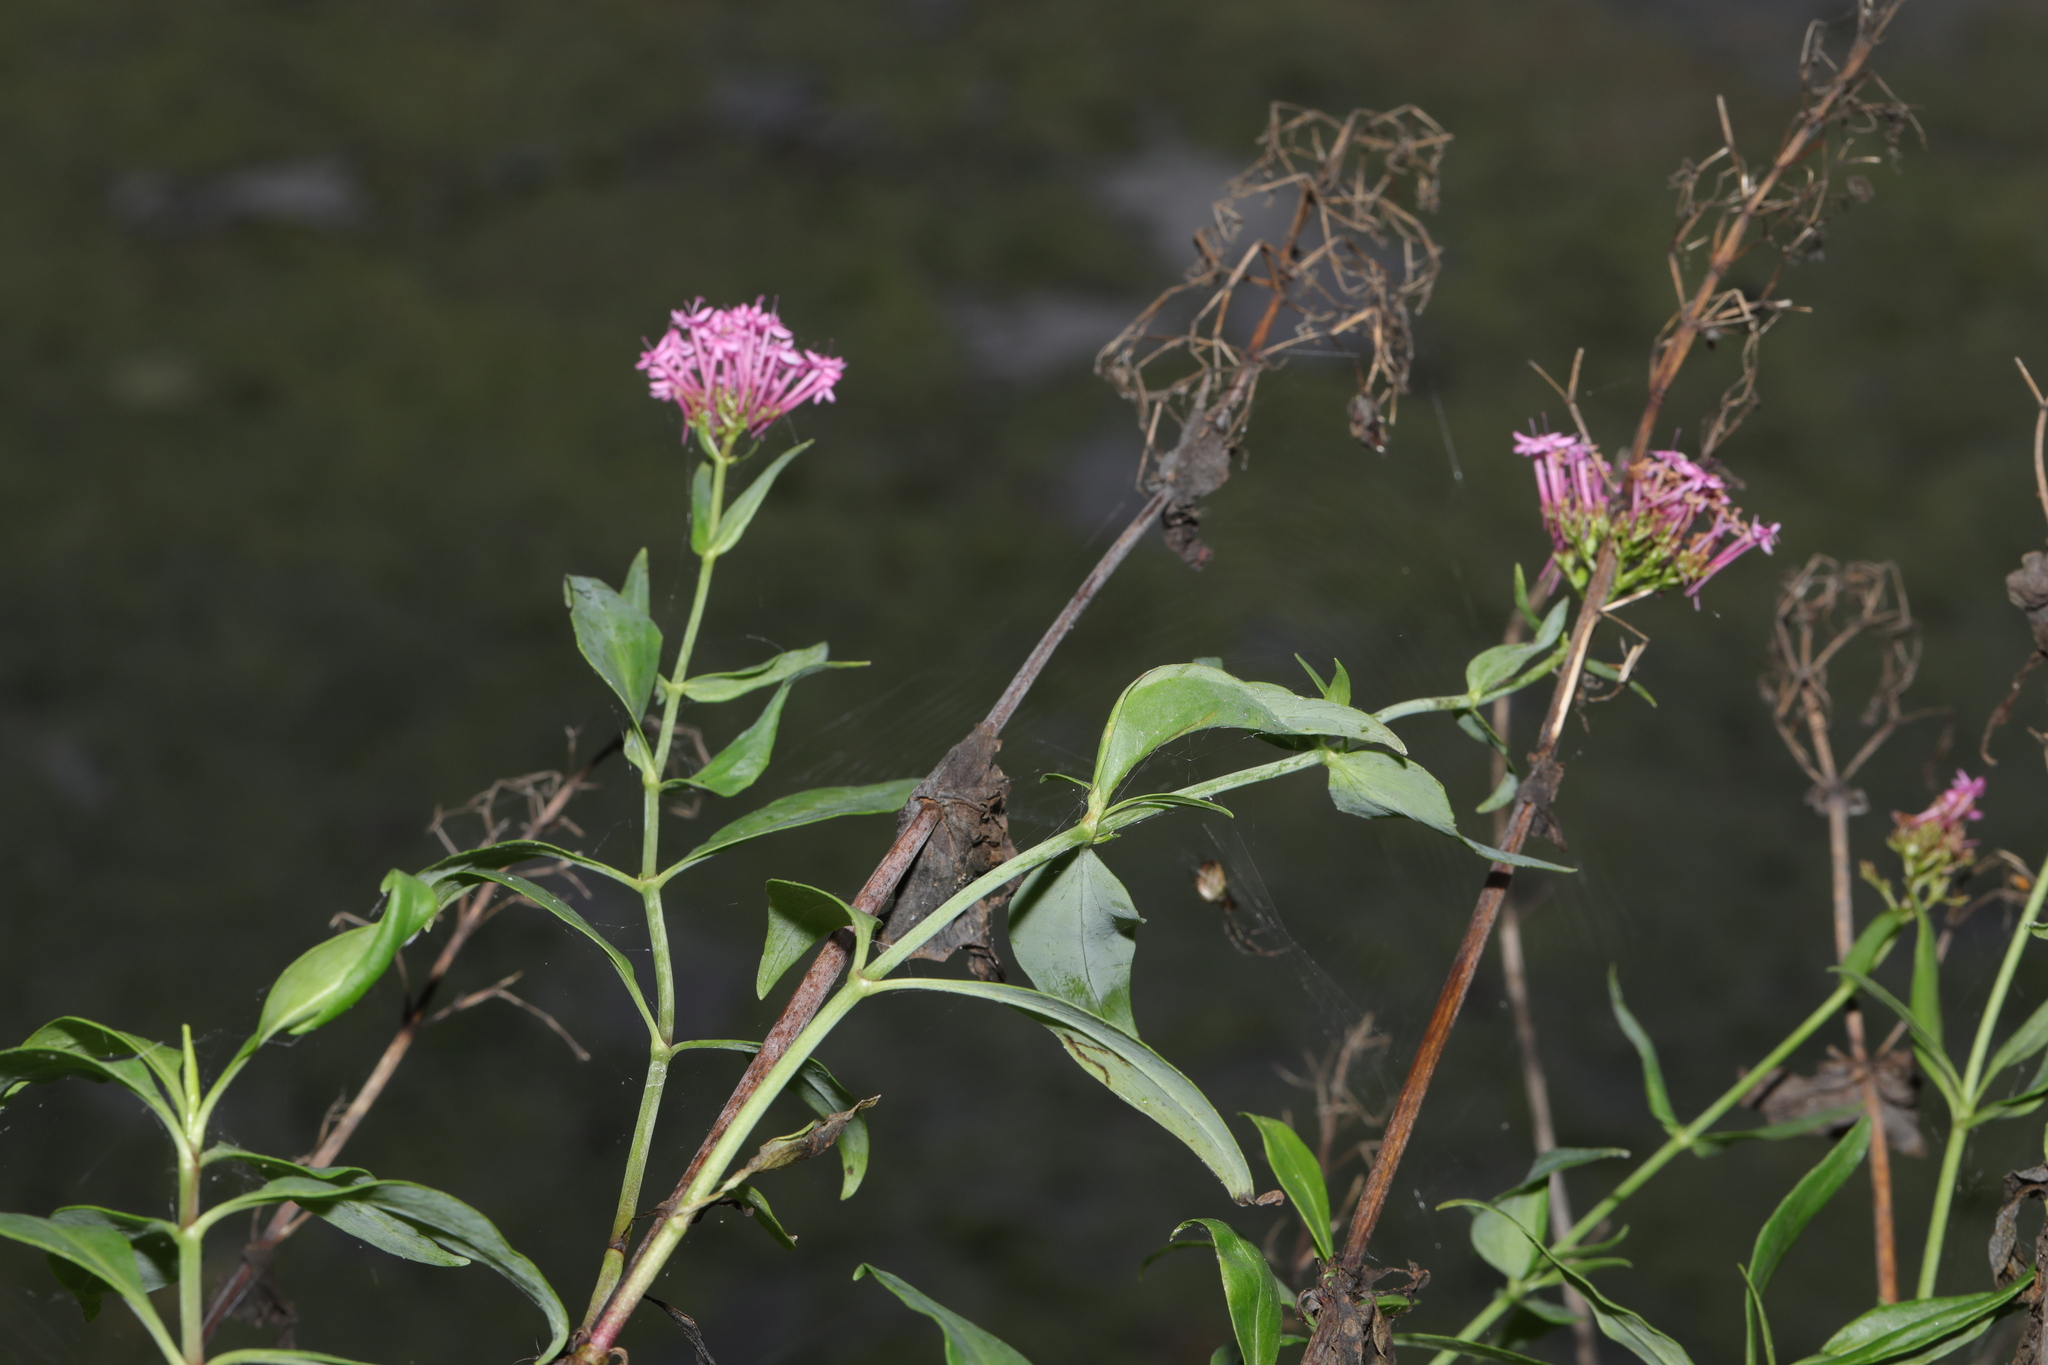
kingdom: Plantae
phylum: Tracheophyta
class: Magnoliopsida
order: Dipsacales
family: Caprifoliaceae
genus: Centranthus
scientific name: Centranthus ruber
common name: Red valerian
